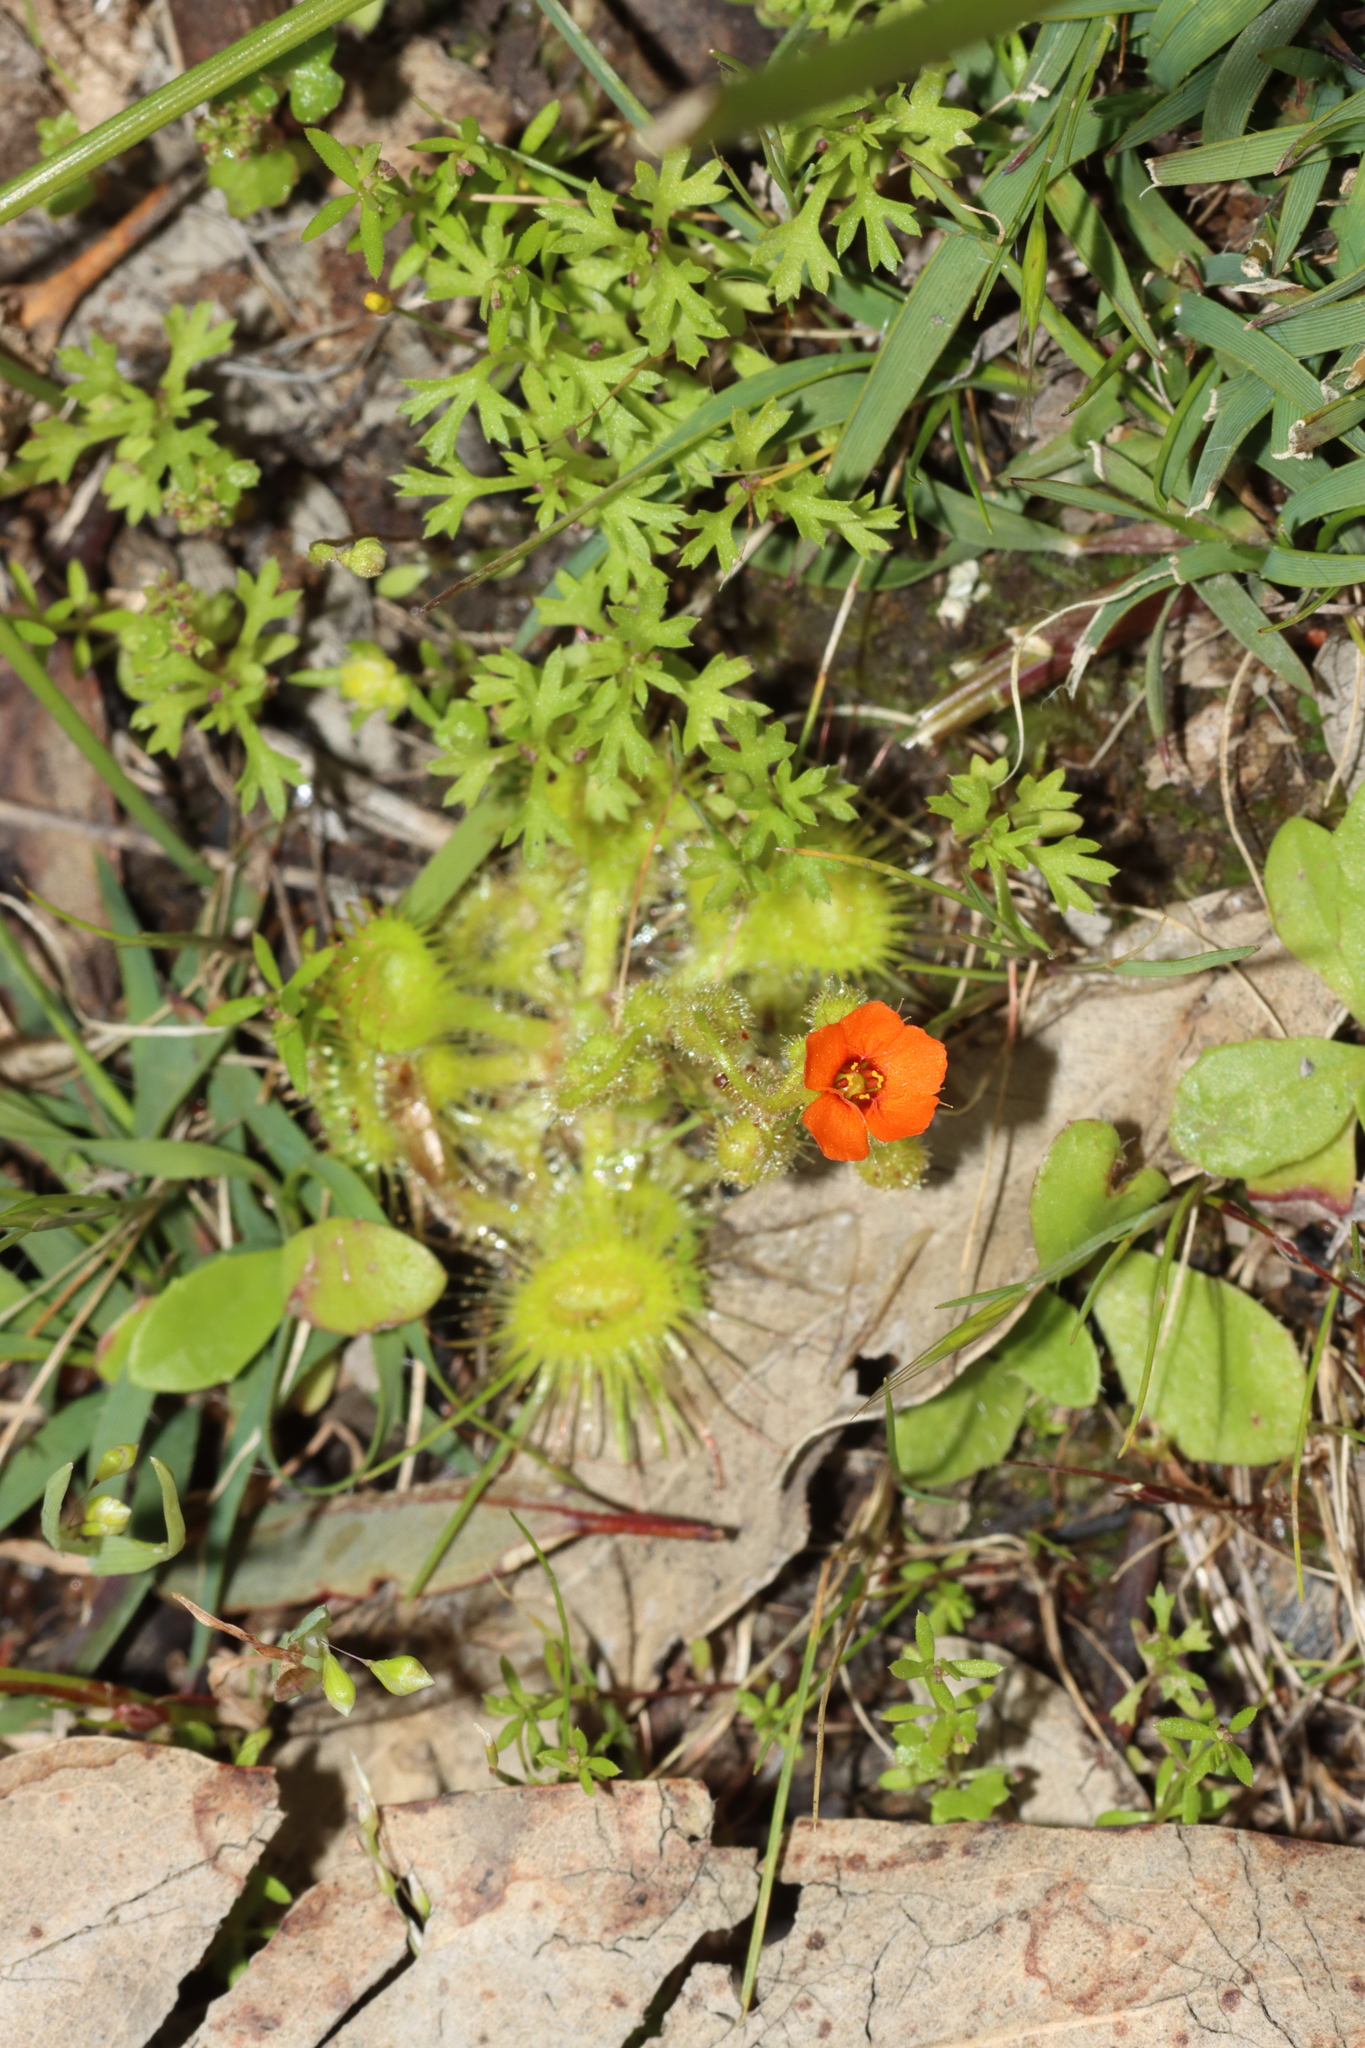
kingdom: Plantae
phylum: Tracheophyta
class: Magnoliopsida
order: Caryophyllales
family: Droseraceae
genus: Drosera
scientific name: Drosera glanduligera
